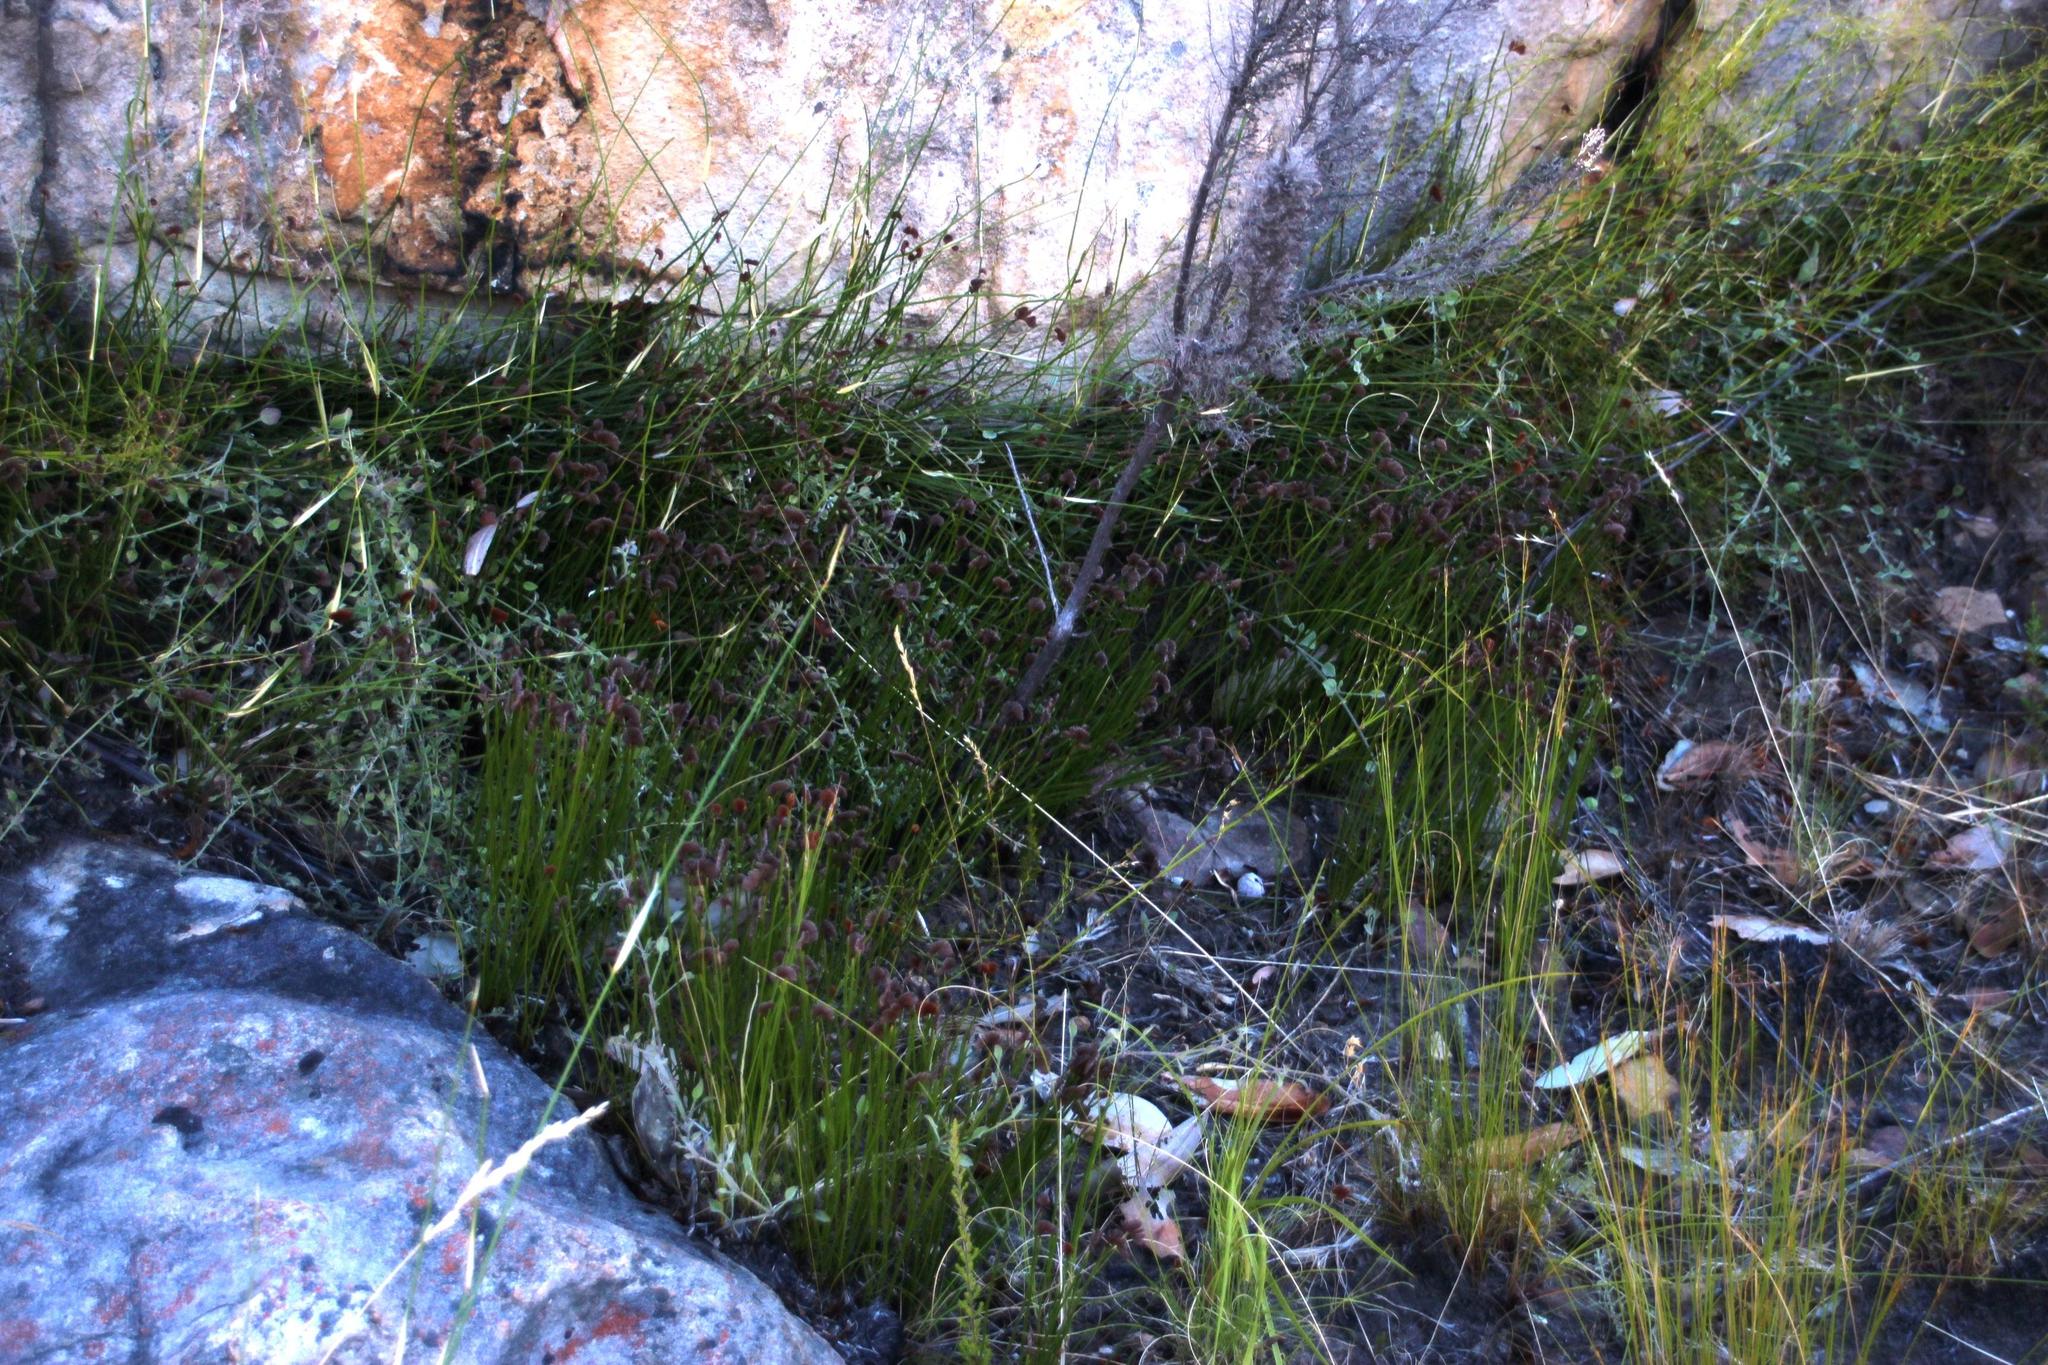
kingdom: Plantae
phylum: Tracheophyta
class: Polypodiopsida
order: Schizaeales
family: Schizaeaceae
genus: Schizaea
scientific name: Schizaea pectinata
